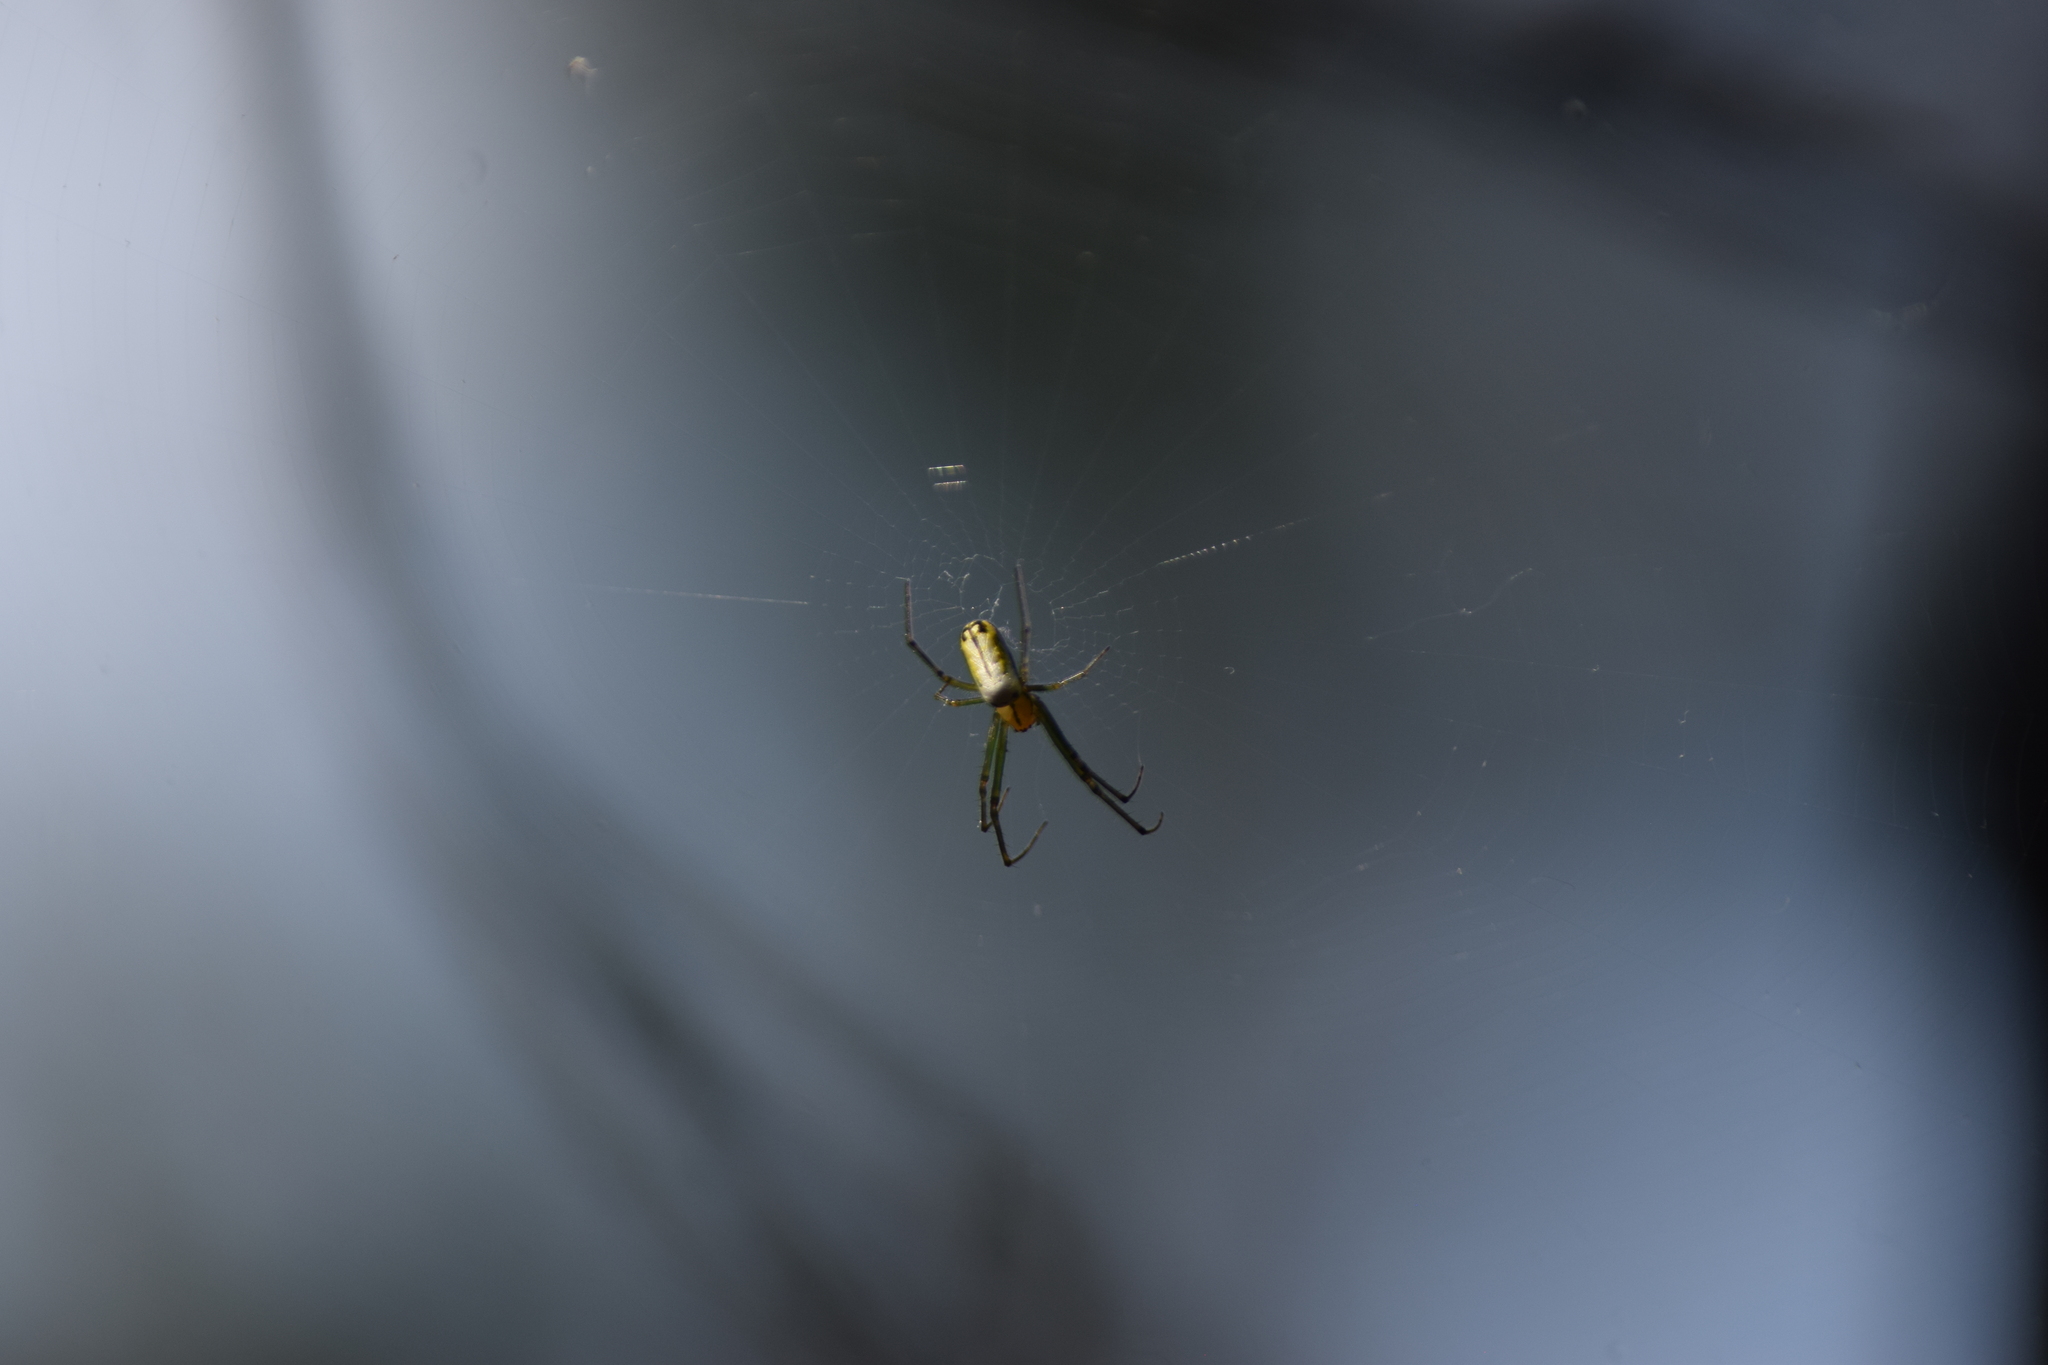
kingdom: Animalia
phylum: Arthropoda
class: Arachnida
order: Araneae
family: Tetragnathidae
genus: Leucauge
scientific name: Leucauge venusta
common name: Longjawed orb weavers
